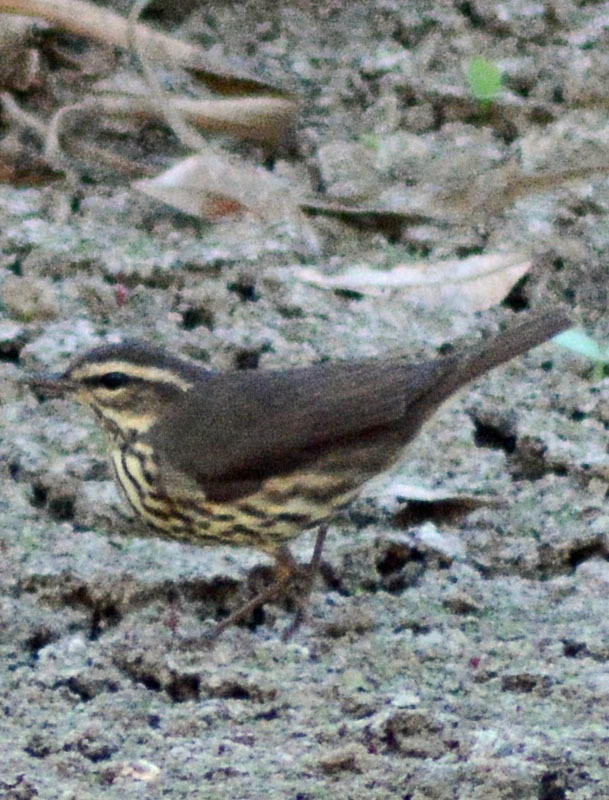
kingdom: Animalia
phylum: Chordata
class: Aves
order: Passeriformes
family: Parulidae
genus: Parkesia
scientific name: Parkesia noveboracensis
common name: Northern waterthrush
